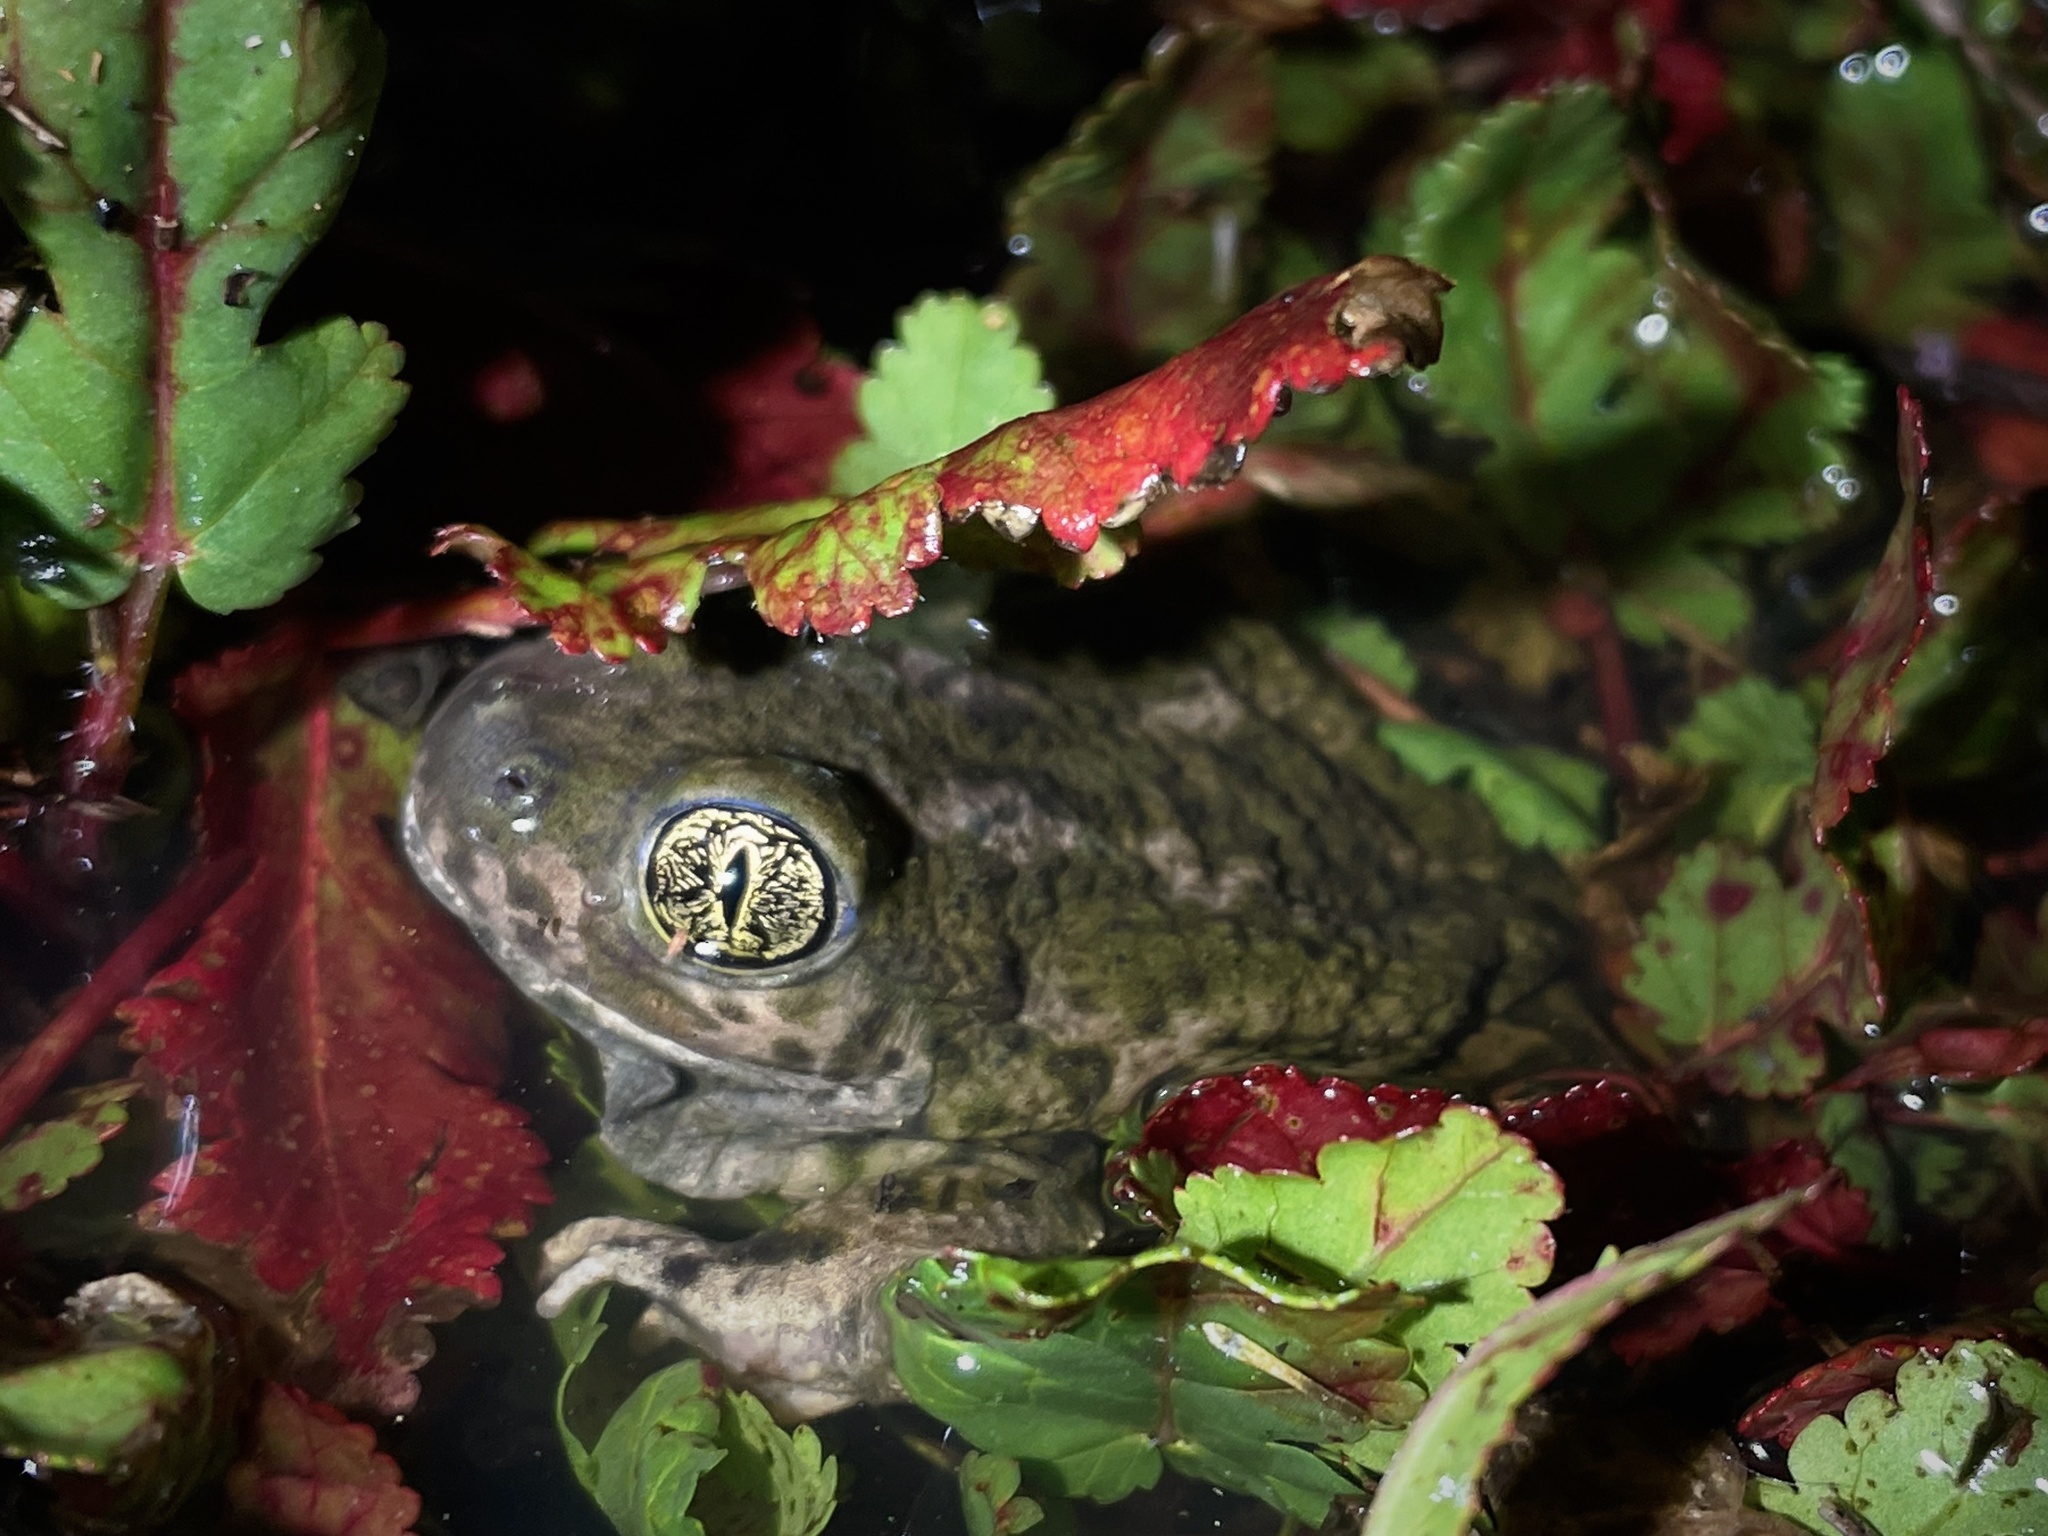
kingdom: Animalia
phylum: Chordata
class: Amphibia
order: Anura
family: Scaphiopodidae
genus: Spea
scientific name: Spea hammondii
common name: Western spadefoot toad
